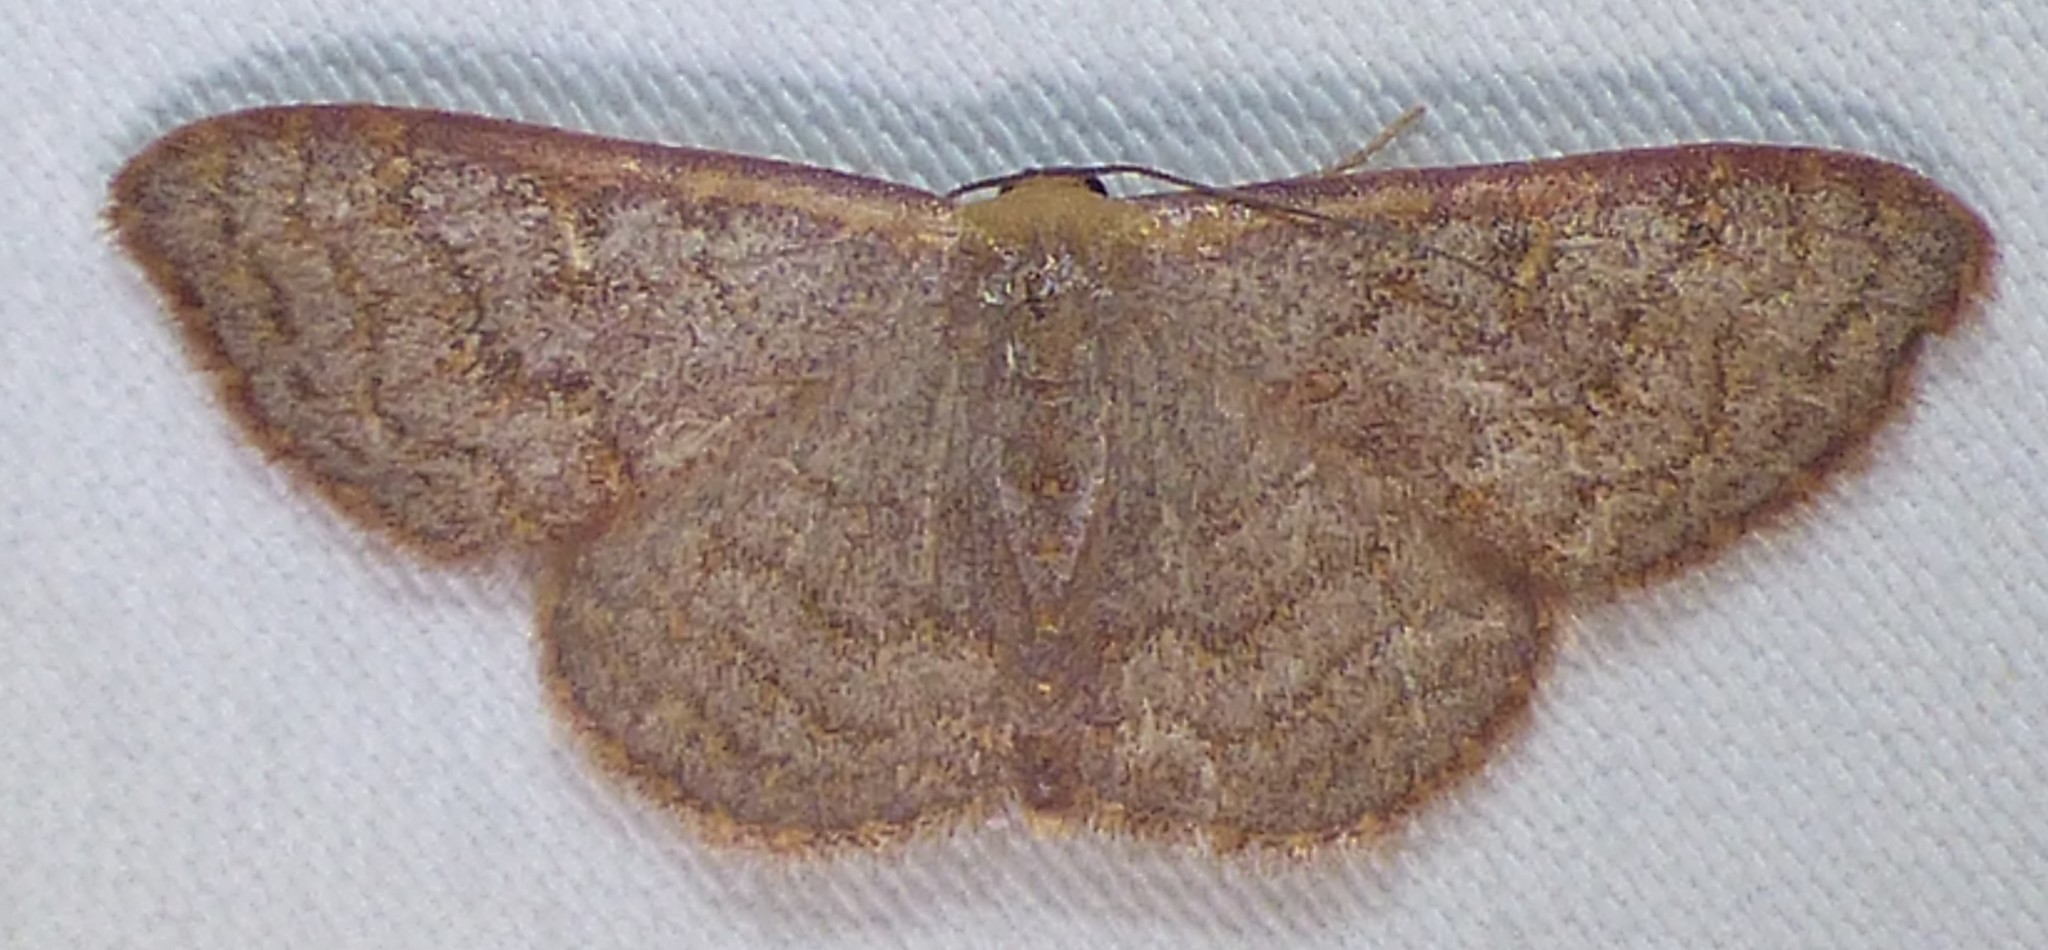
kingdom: Animalia
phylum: Arthropoda
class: Insecta
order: Lepidoptera
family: Geometridae
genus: Leptostales
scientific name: Leptostales pannaria
